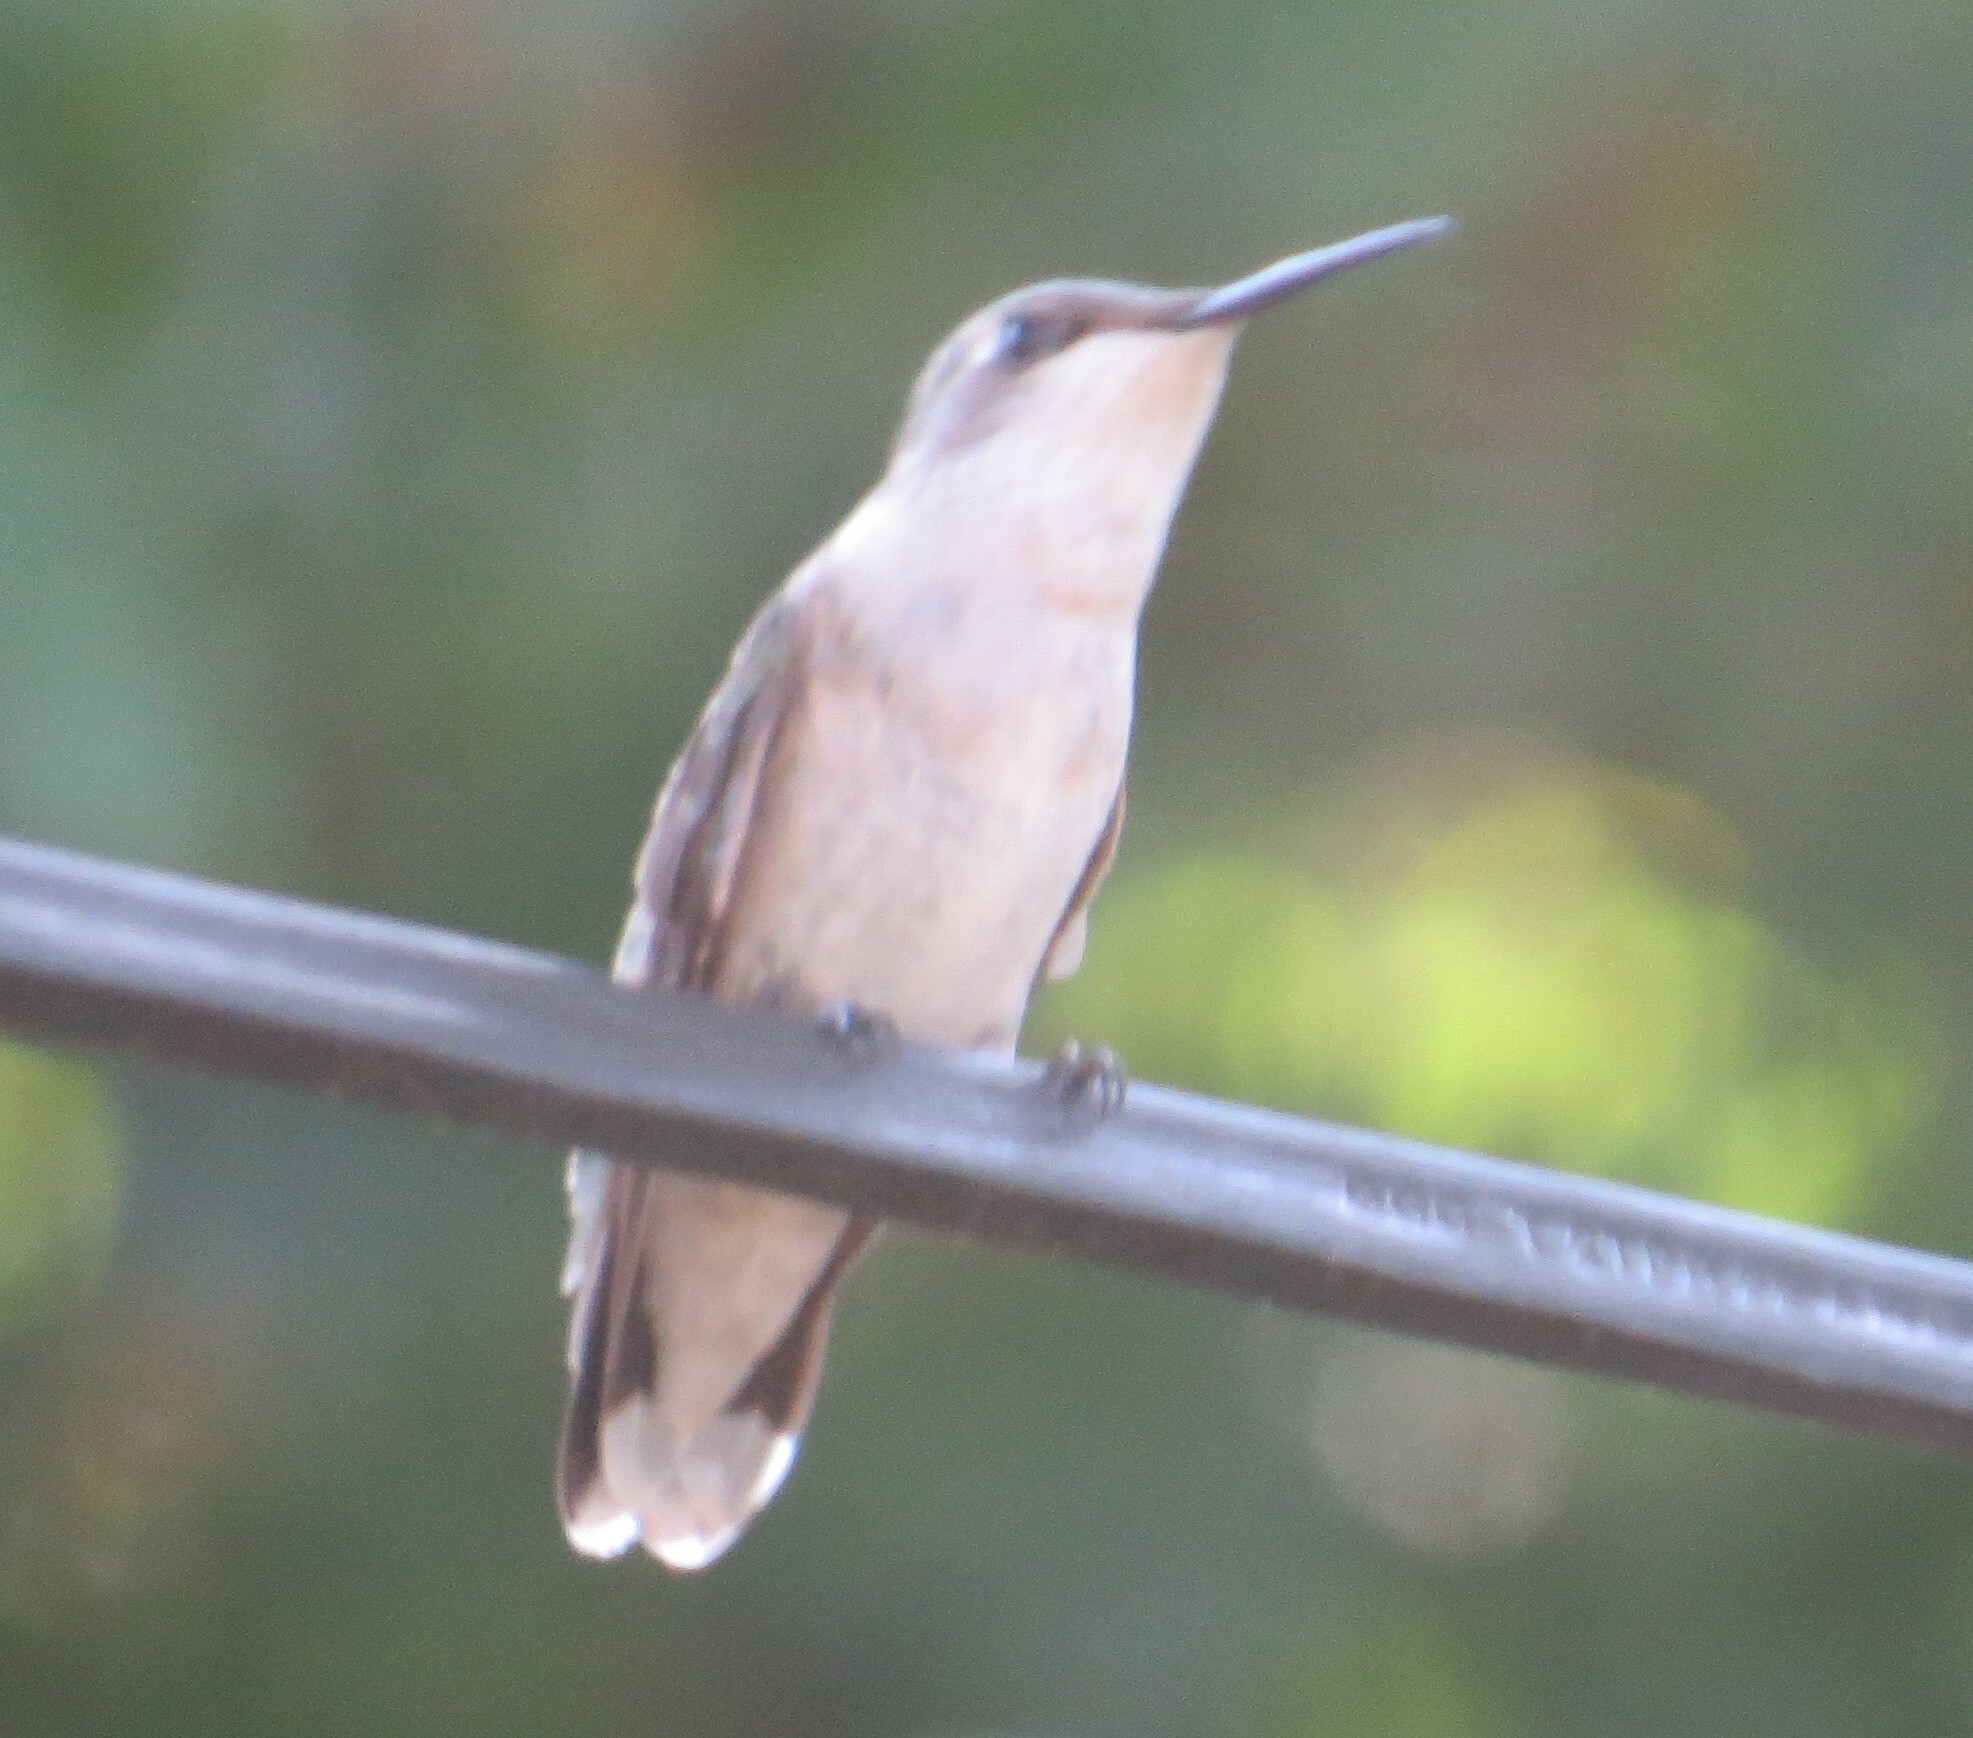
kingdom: Animalia
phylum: Chordata
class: Aves
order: Apodiformes
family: Trochilidae
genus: Archilochus
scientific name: Archilochus colubris
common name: Ruby-throated hummingbird
